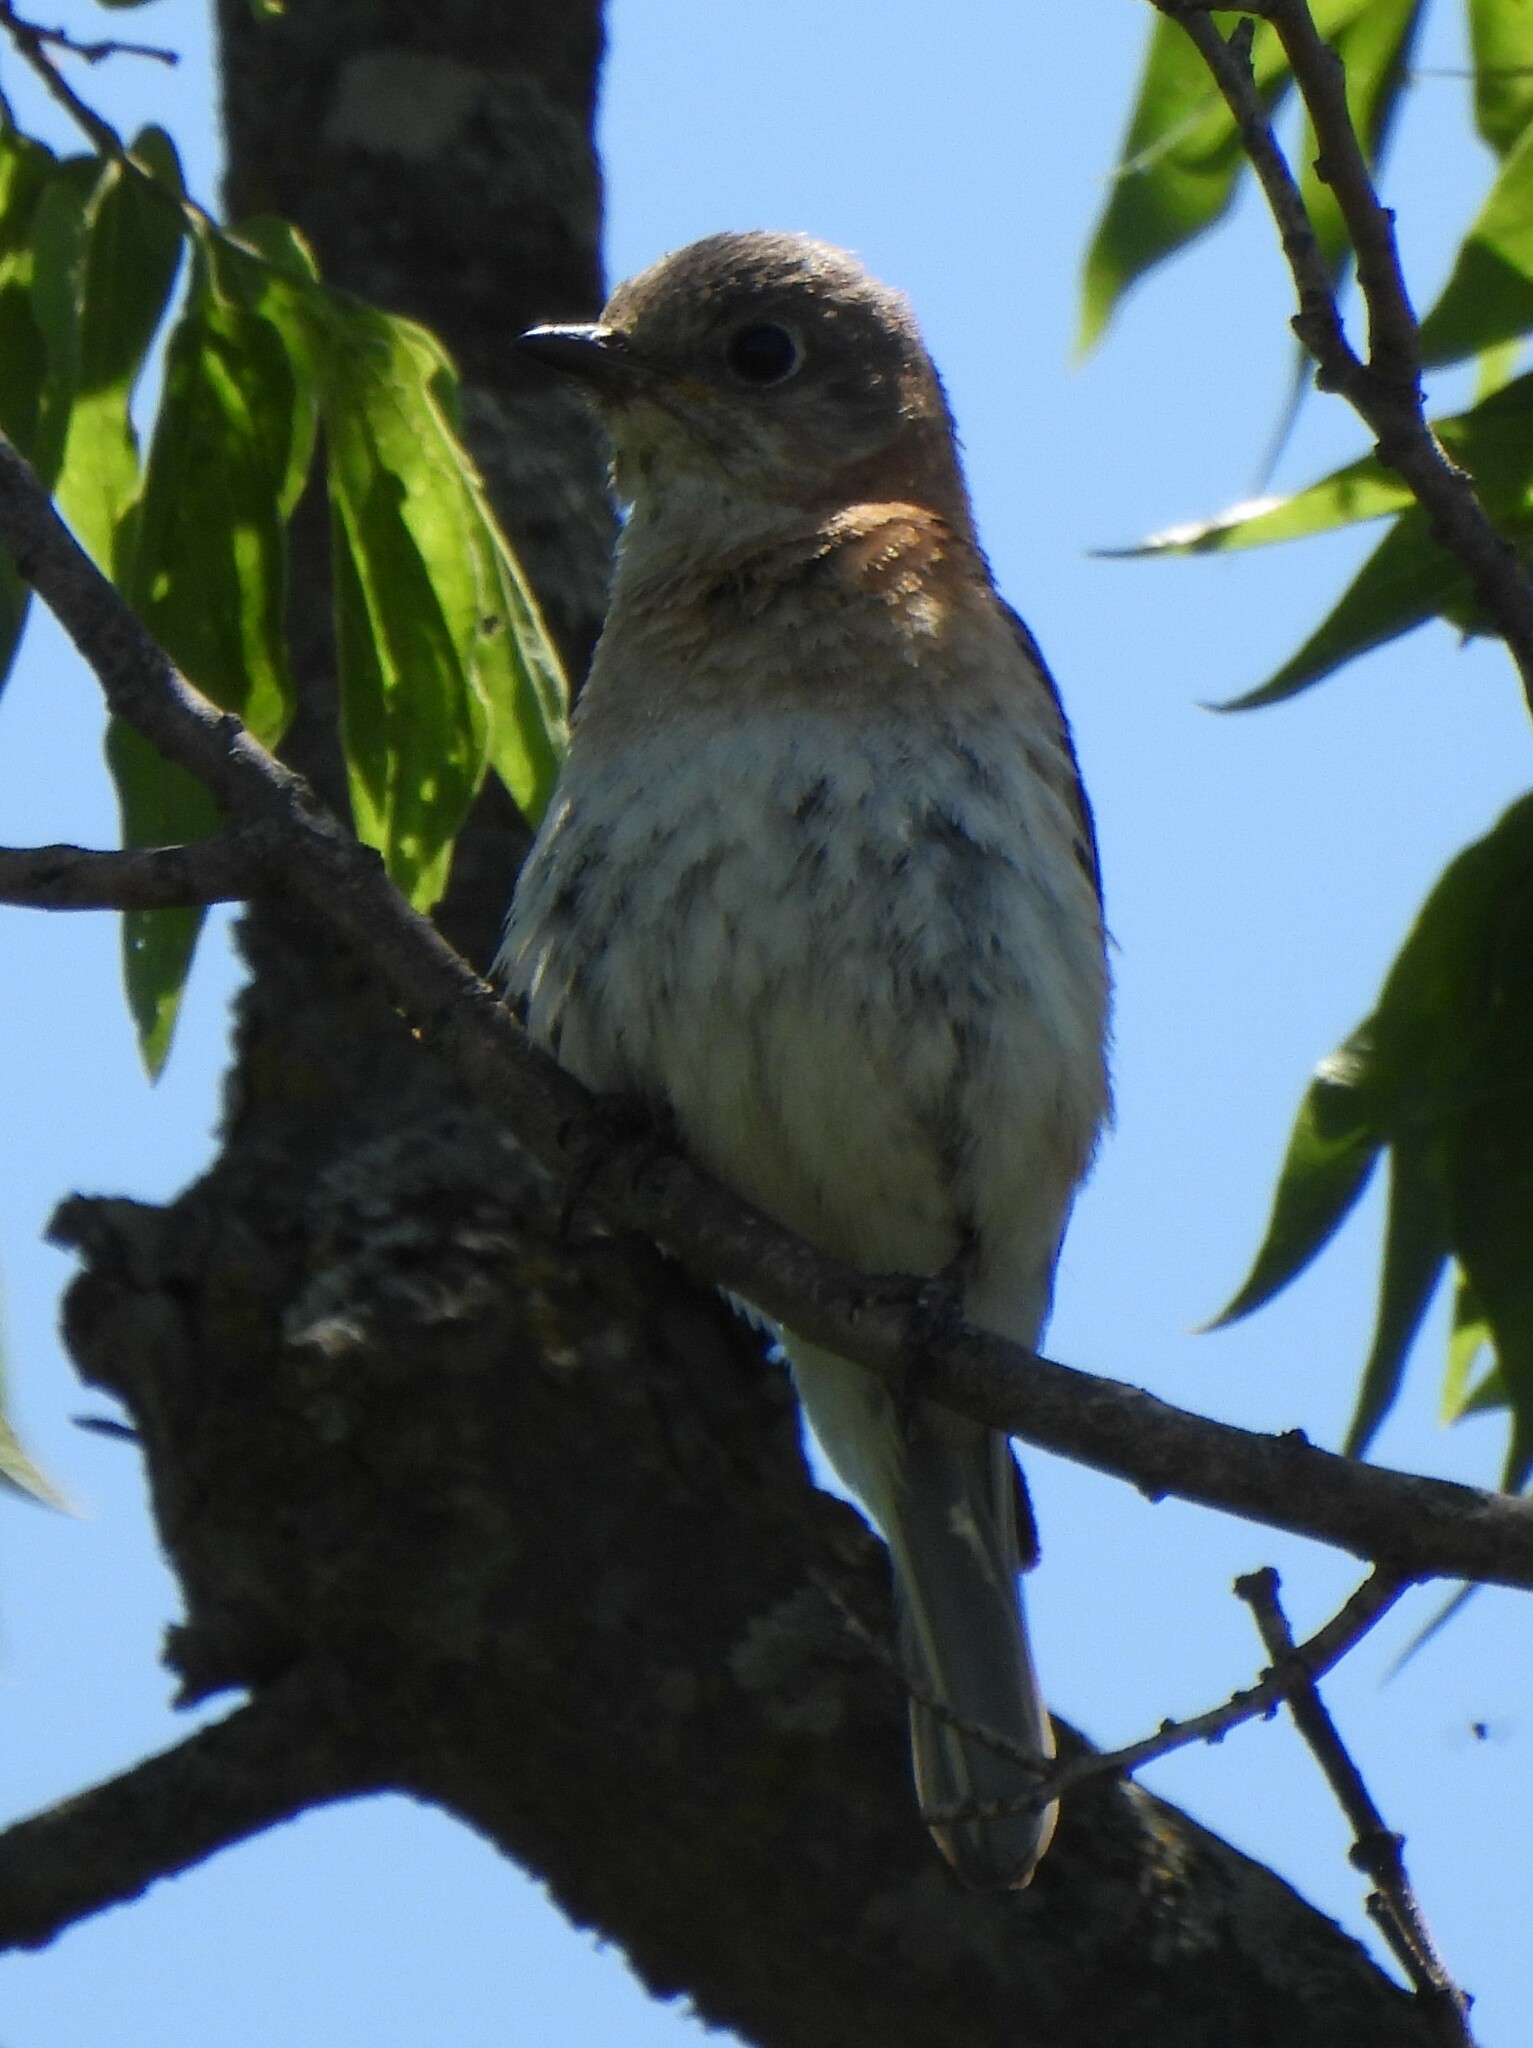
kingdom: Animalia
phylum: Chordata
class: Aves
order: Passeriformes
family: Turdidae
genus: Sialia
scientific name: Sialia sialis
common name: Eastern bluebird
